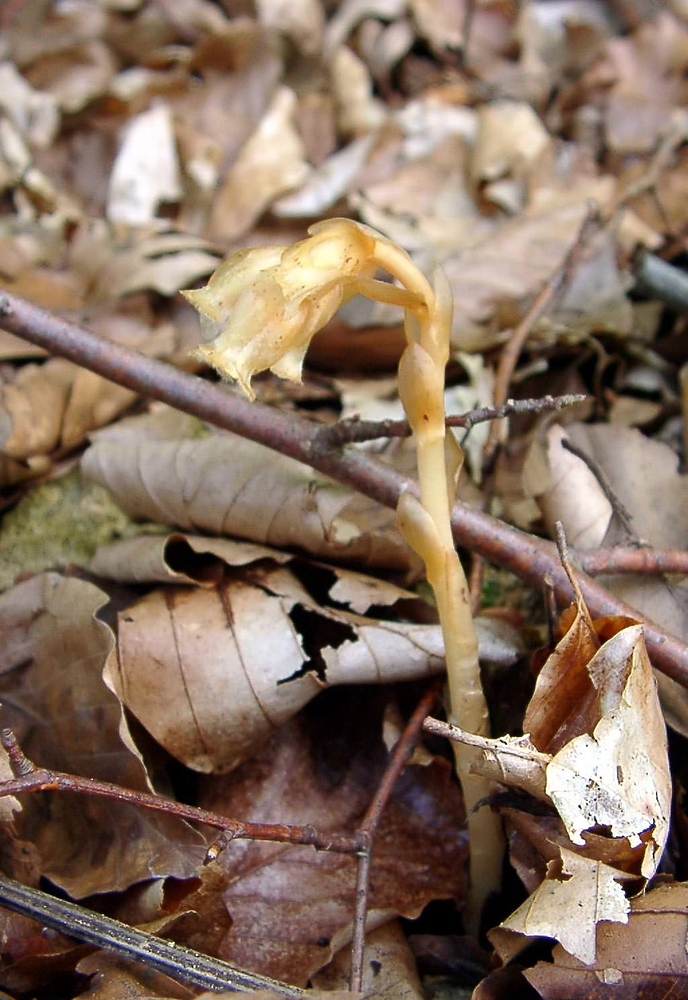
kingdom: Plantae
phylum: Tracheophyta
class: Magnoliopsida
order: Ericales
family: Ericaceae
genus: Hypopitys
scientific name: Hypopitys monotropa
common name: Yellow bird's-nest
